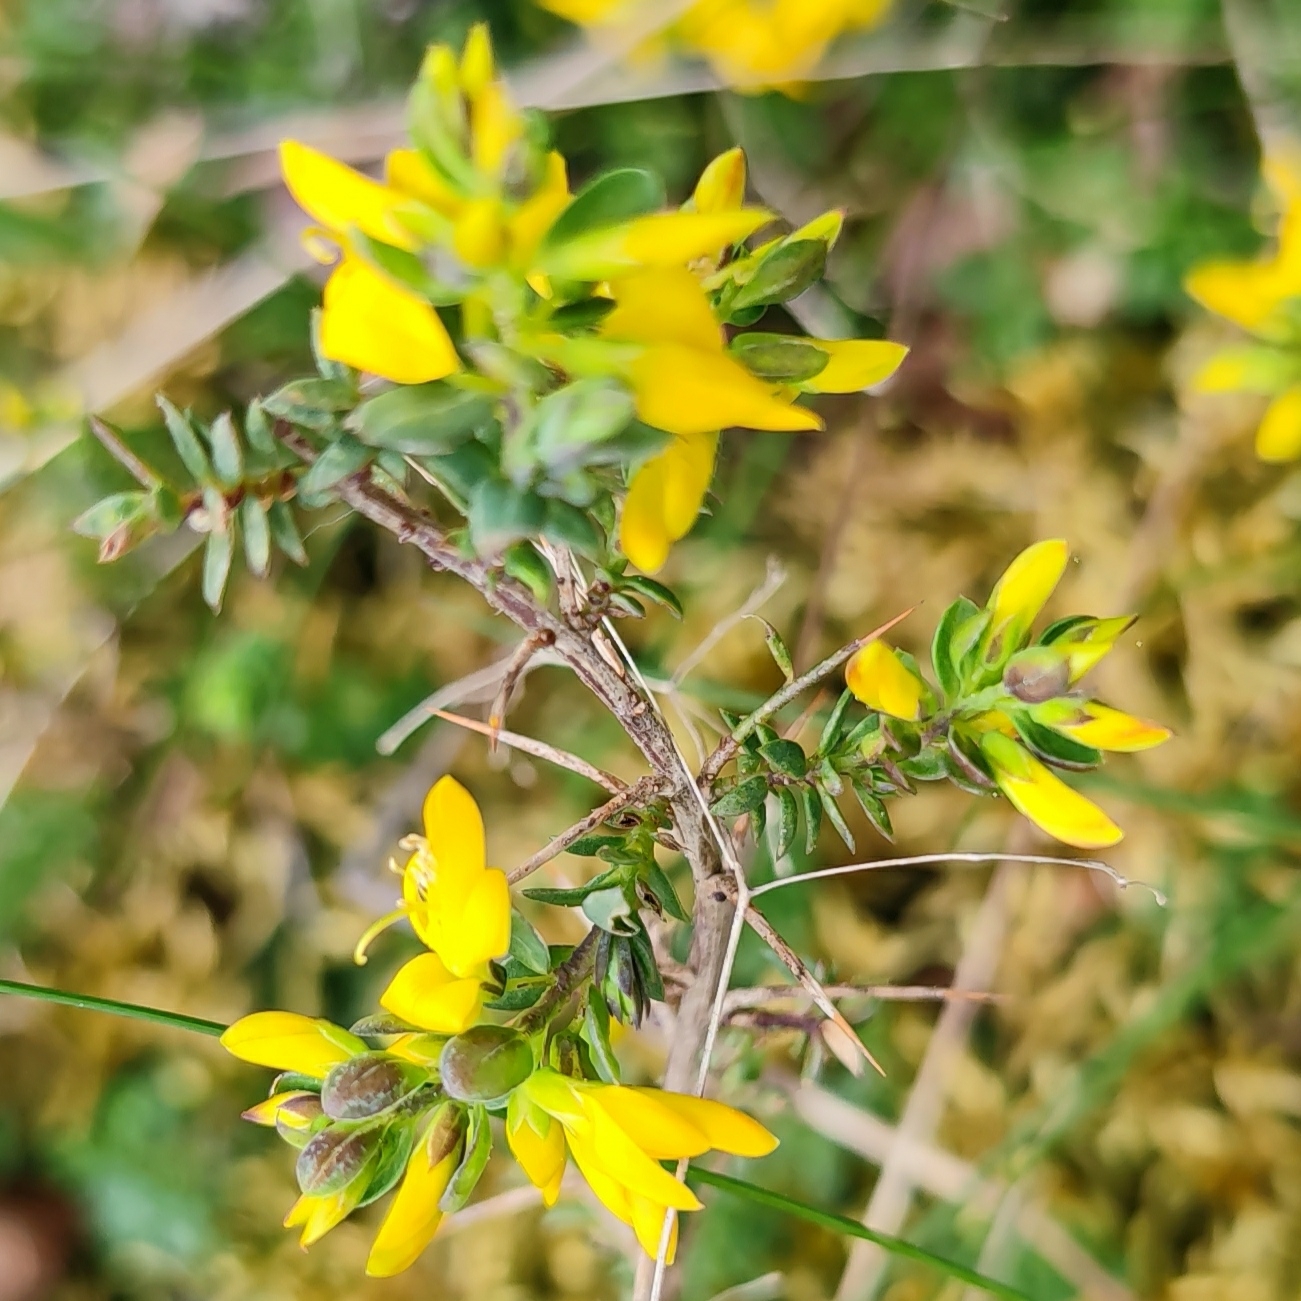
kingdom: Plantae
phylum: Tracheophyta
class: Magnoliopsida
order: Fabales
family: Fabaceae
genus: Genista
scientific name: Genista anglica
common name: Petty whin
